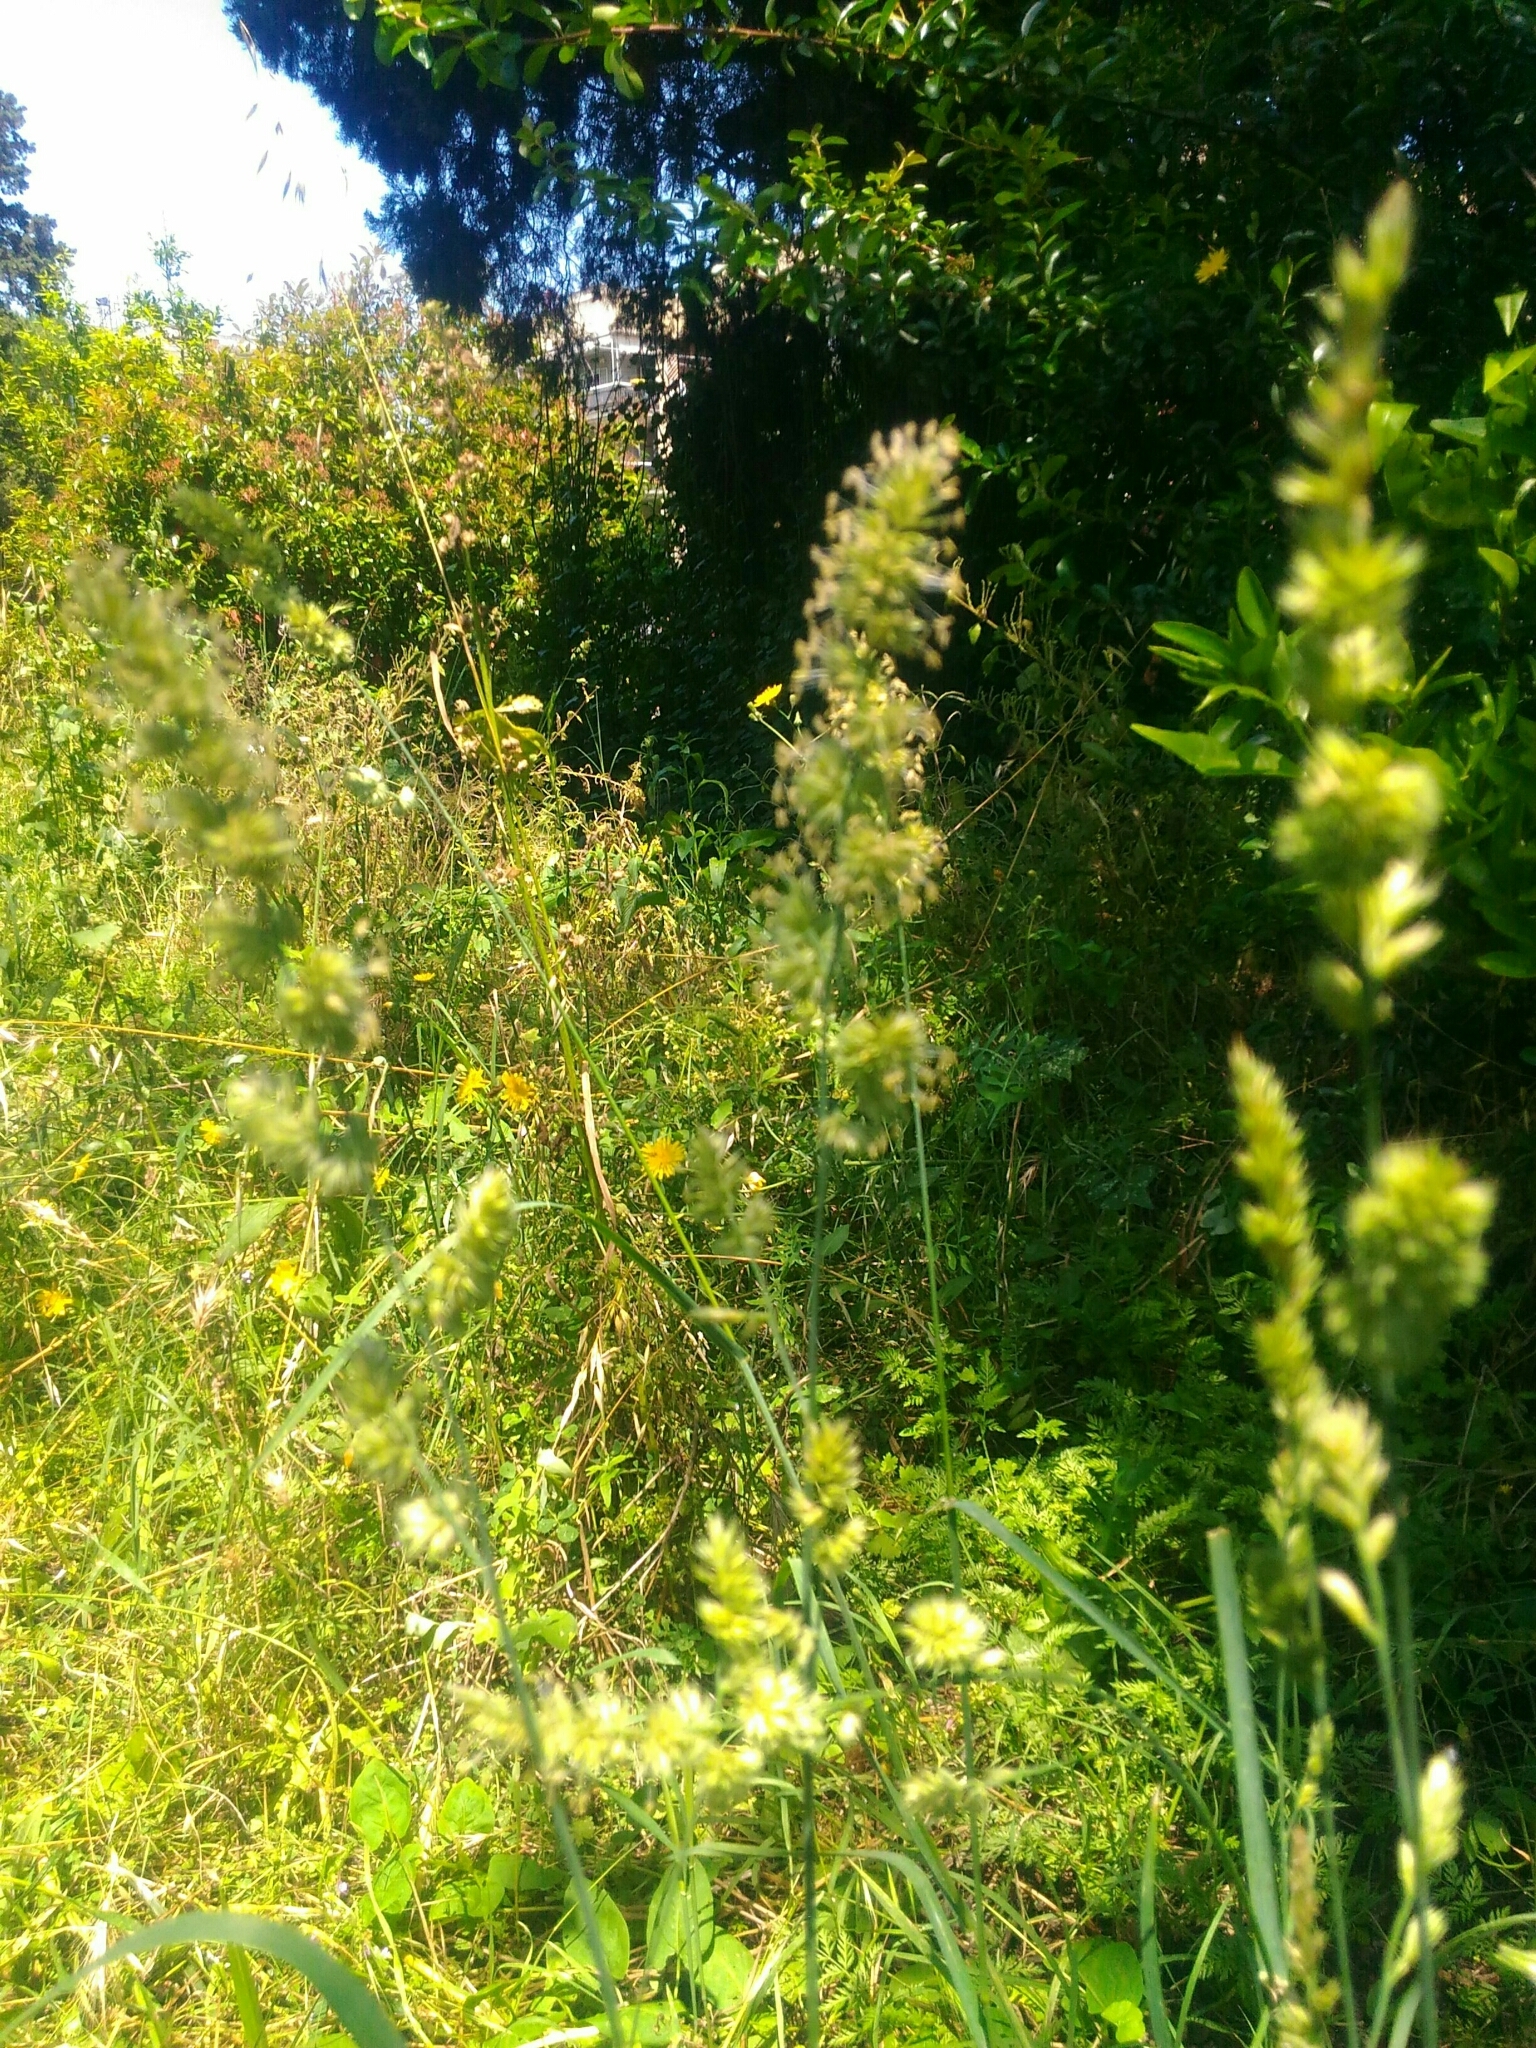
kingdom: Plantae
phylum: Tracheophyta
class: Liliopsida
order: Poales
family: Poaceae
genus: Dactylis
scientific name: Dactylis glomerata
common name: Orchardgrass
